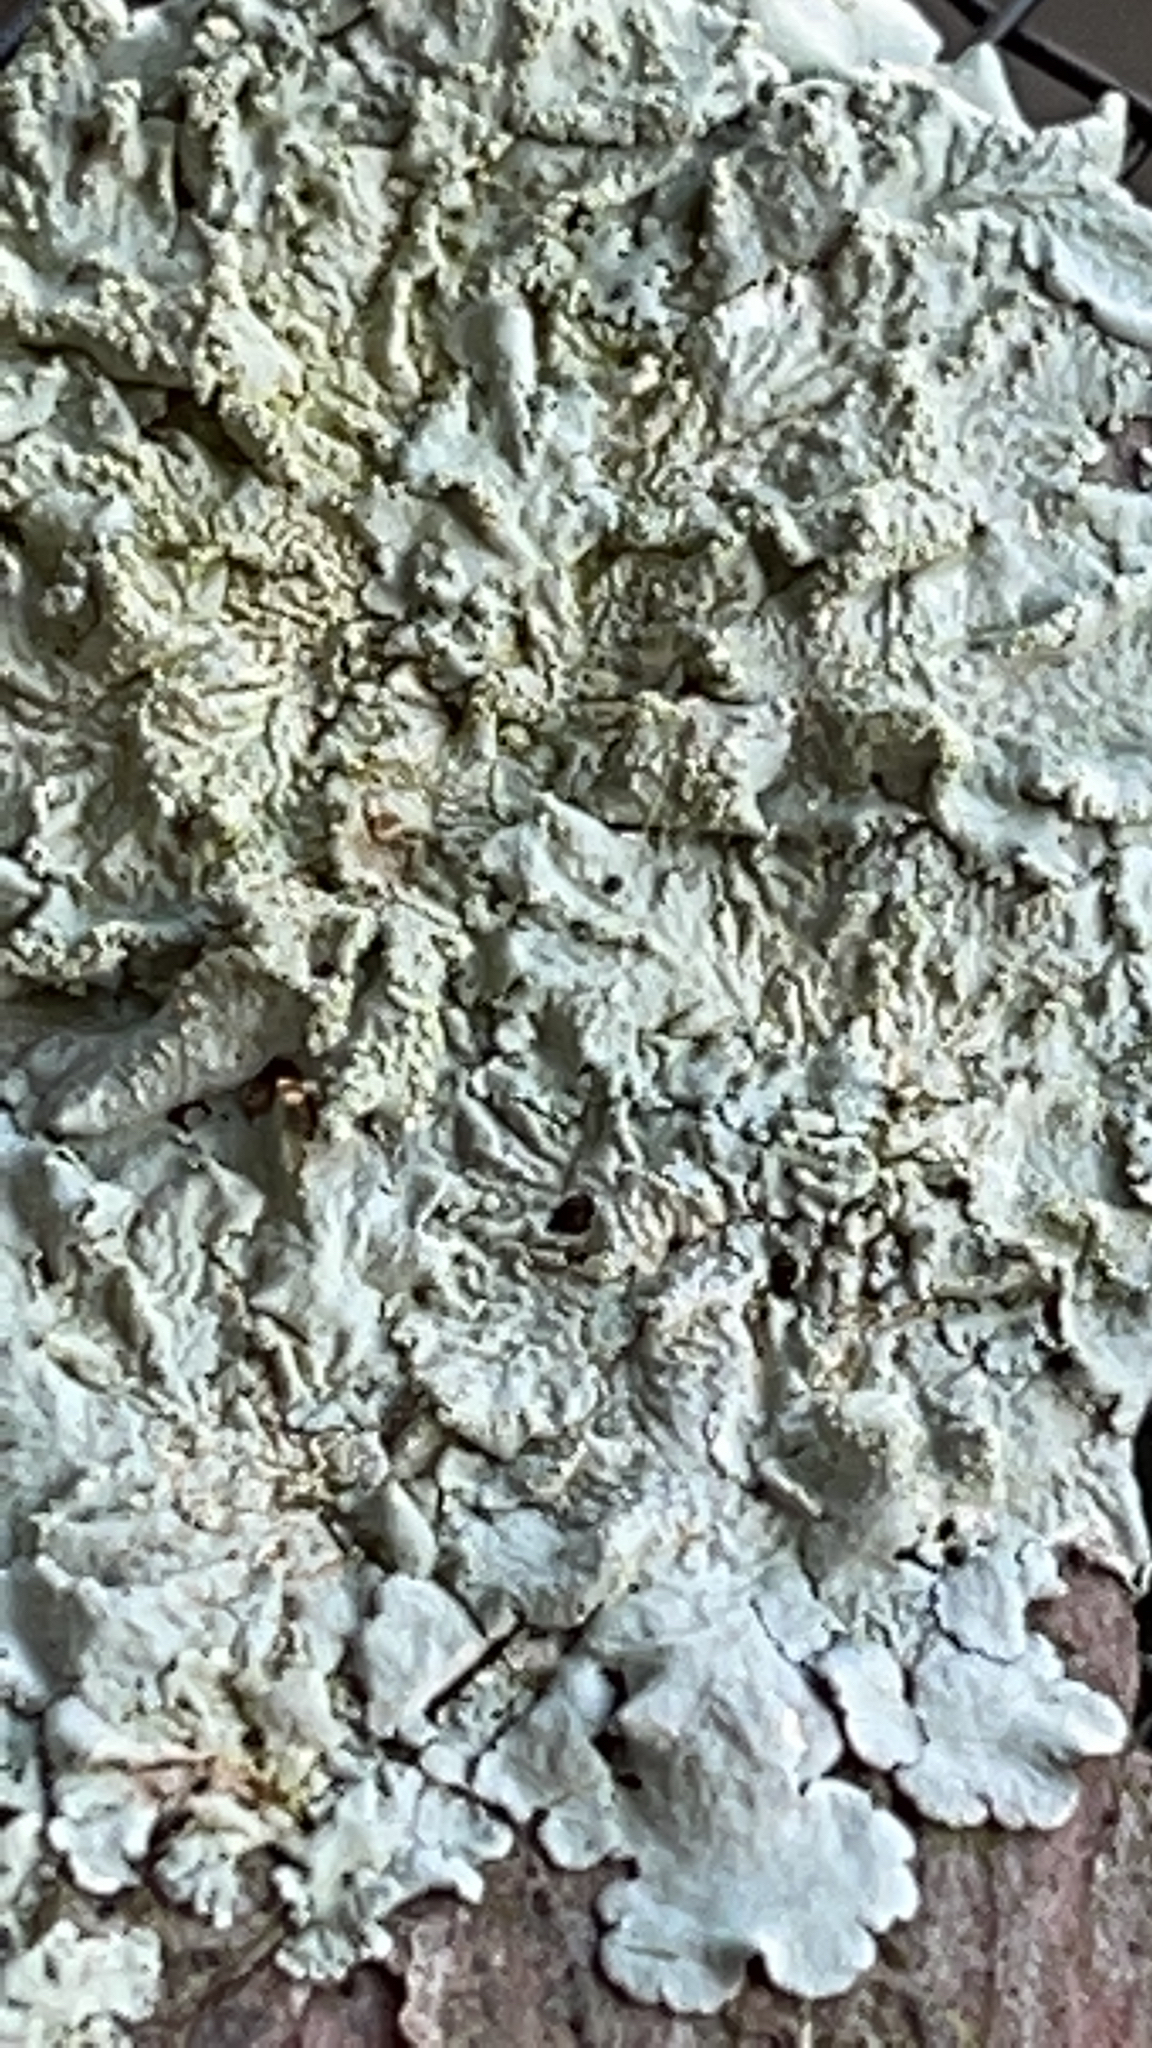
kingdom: Fungi
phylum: Ascomycota
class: Lecanoromycetes
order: Lecanorales
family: Parmeliaceae
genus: Canoparmelia
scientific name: Canoparmelia texana
